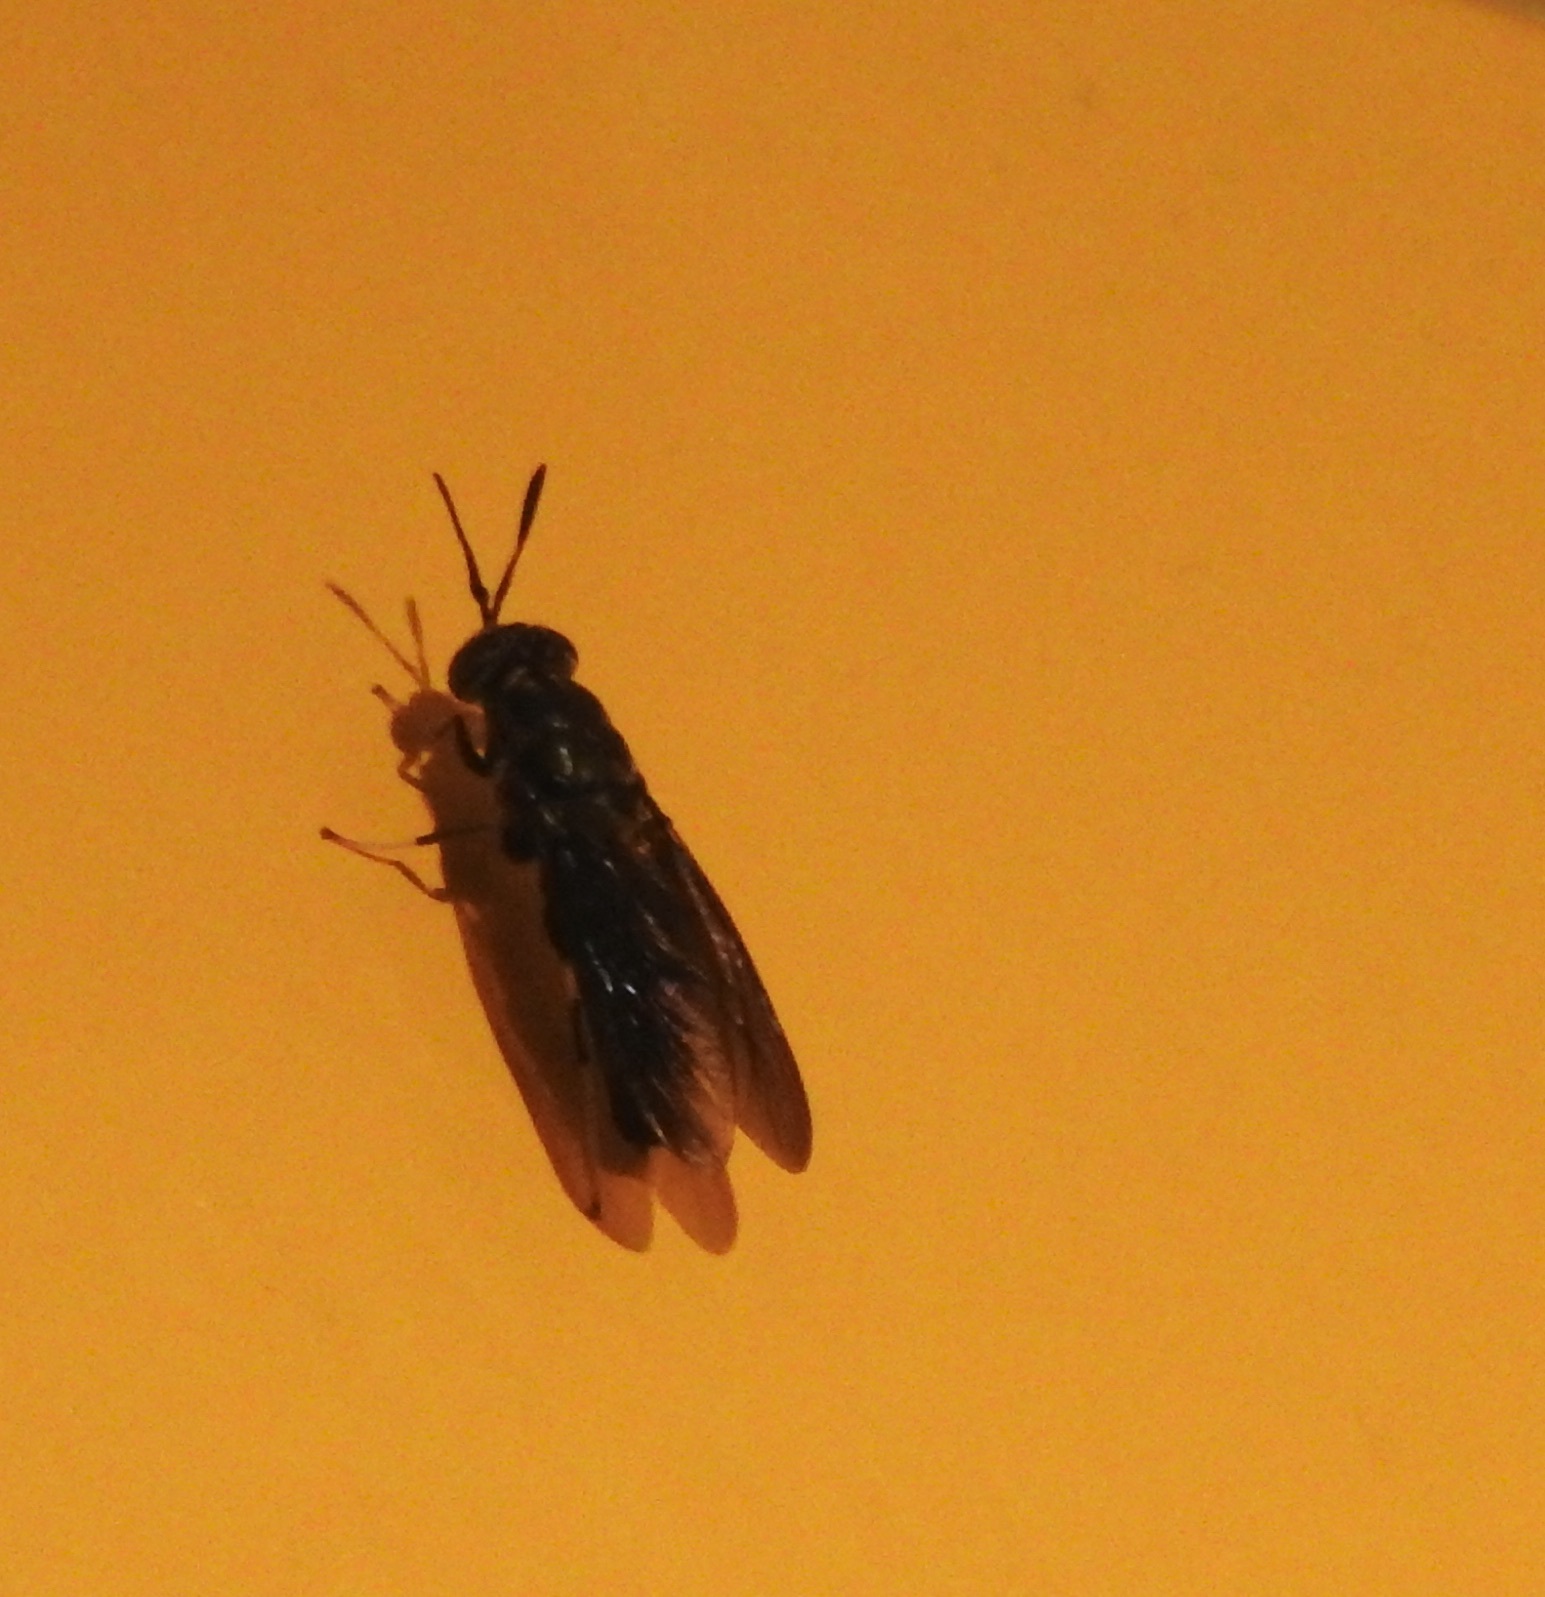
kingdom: Animalia
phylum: Arthropoda
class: Insecta
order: Diptera
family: Stratiomyidae
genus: Hermetia
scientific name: Hermetia illucens
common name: Black soldier fly
